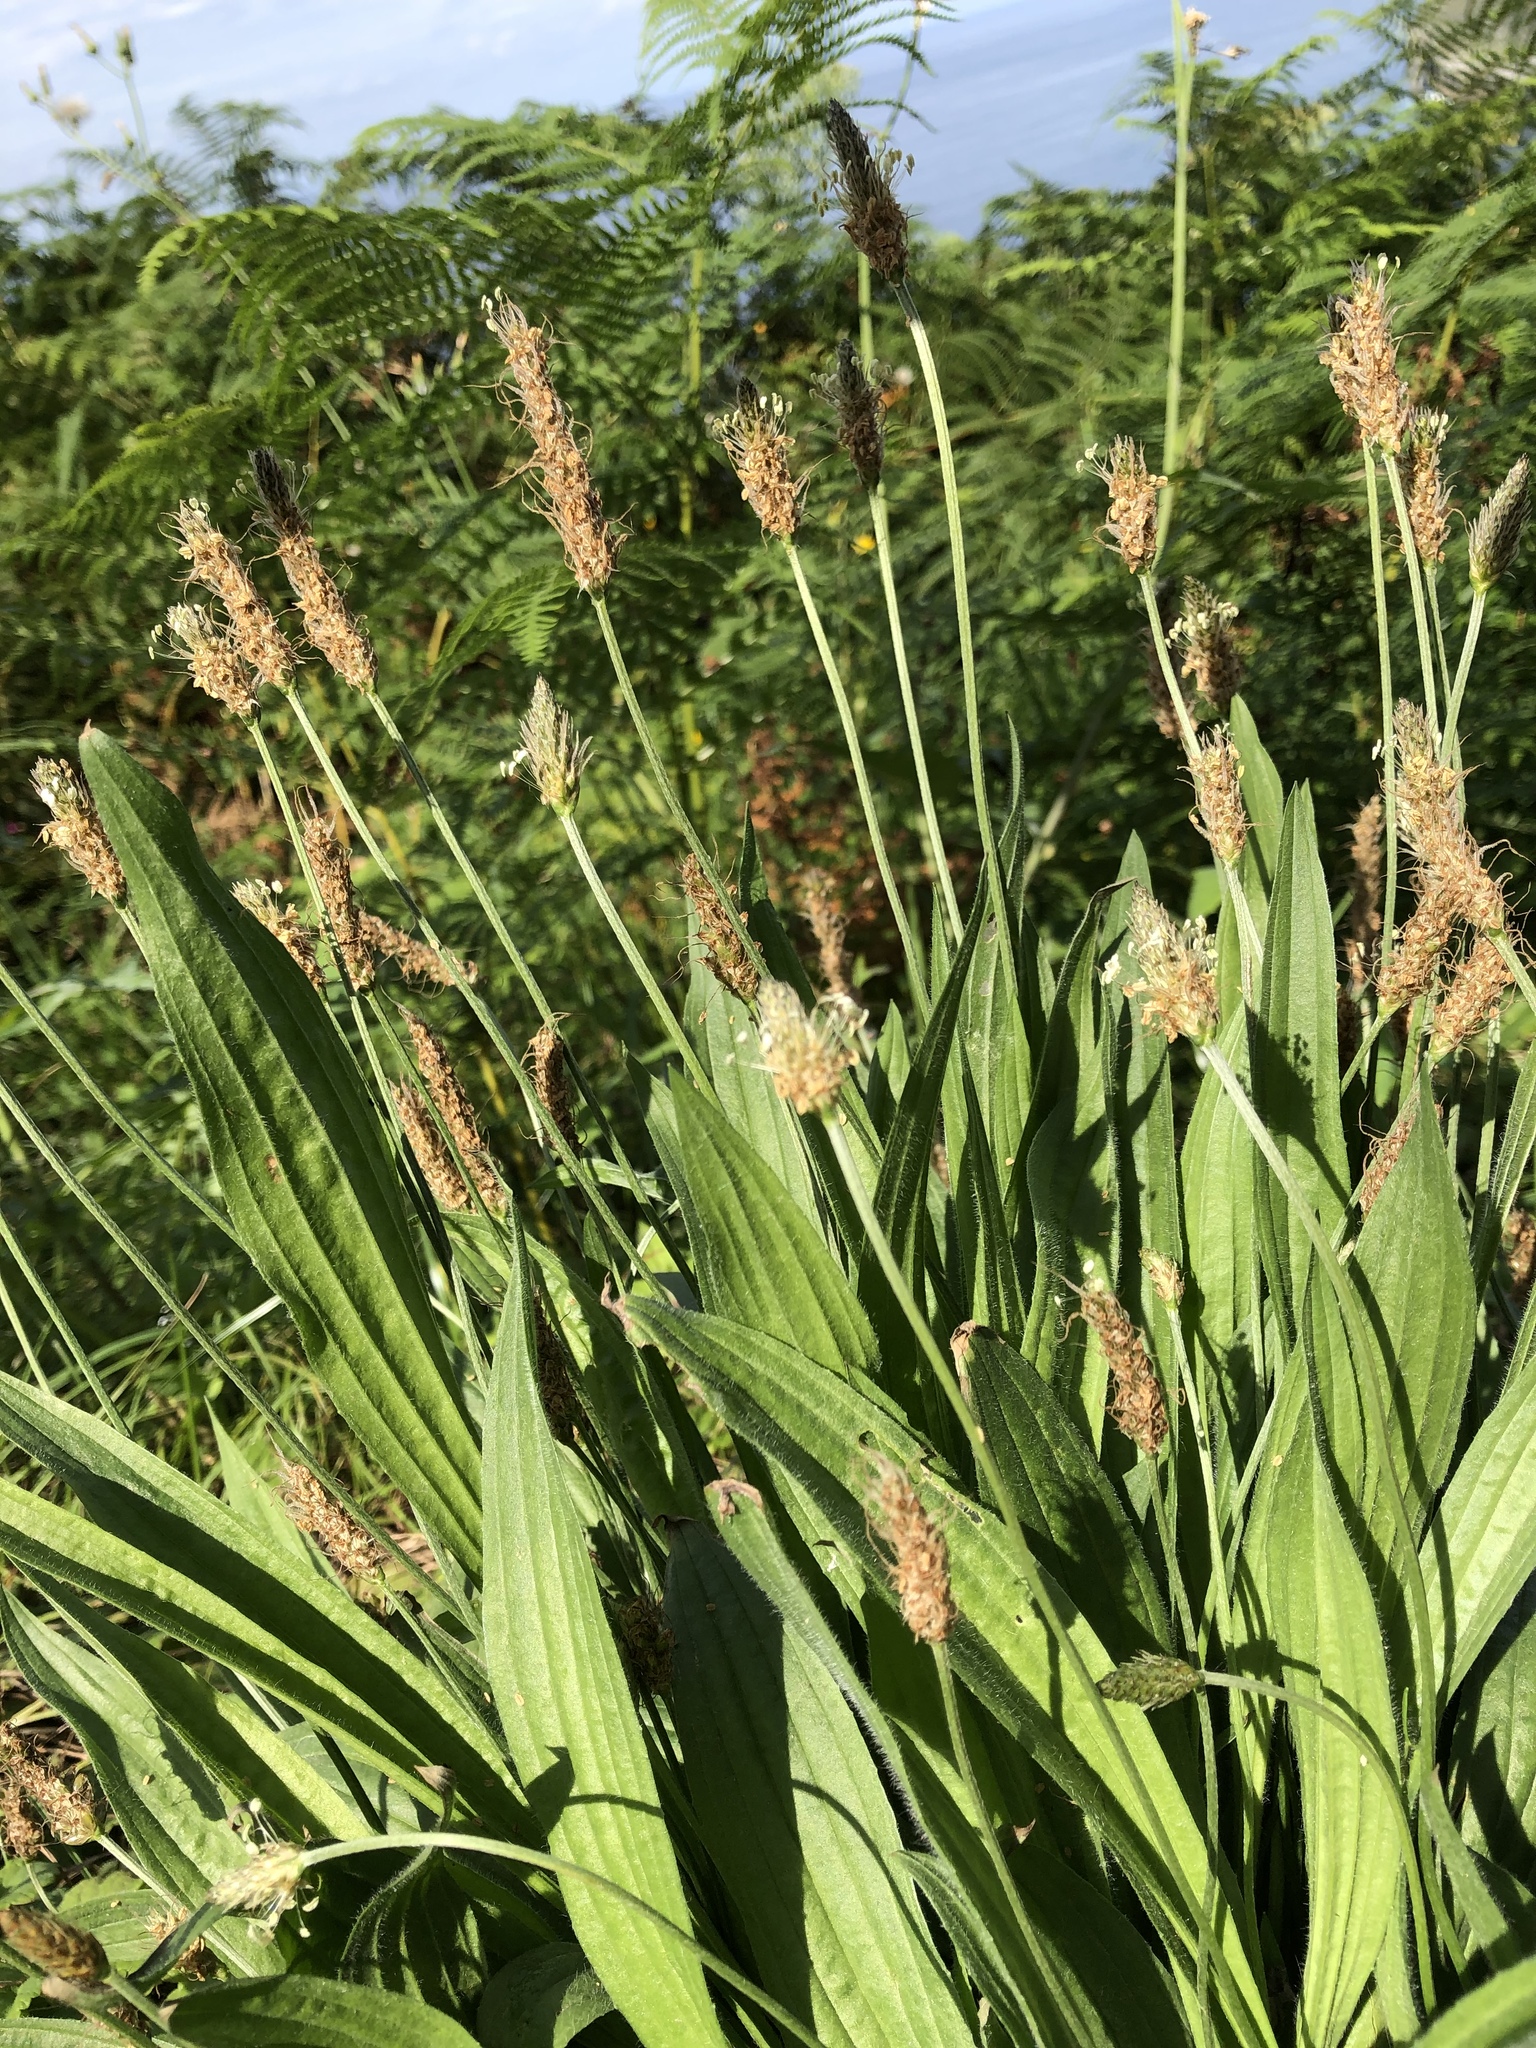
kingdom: Plantae
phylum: Tracheophyta
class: Magnoliopsida
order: Lamiales
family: Plantaginaceae
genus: Plantago
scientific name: Plantago lanceolata
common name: Ribwort plantain
